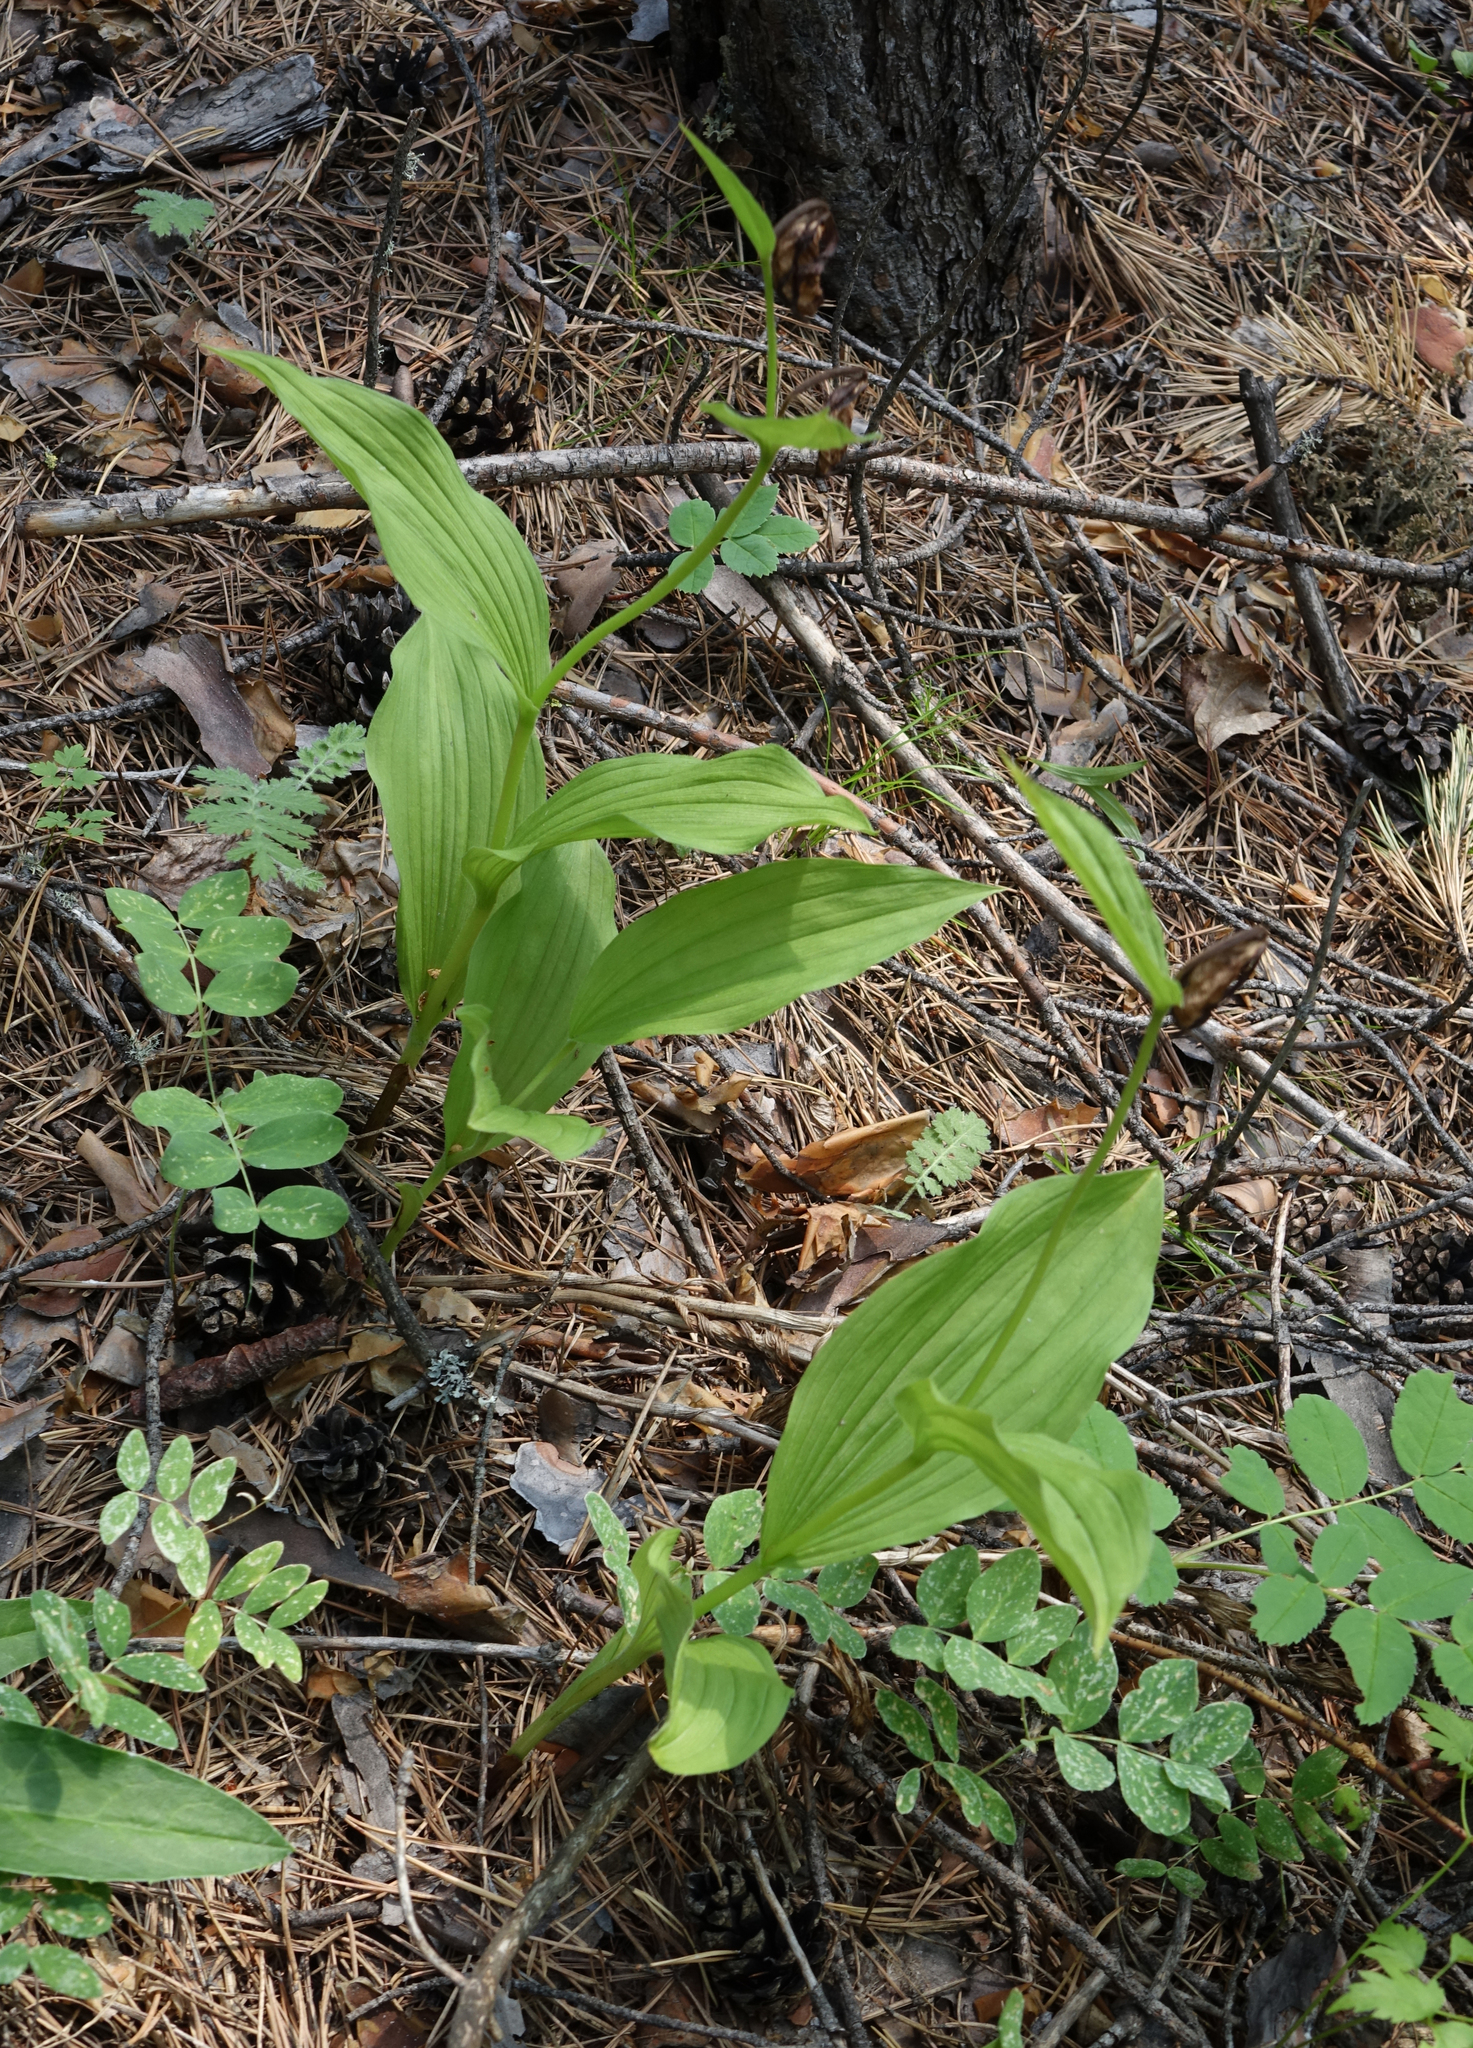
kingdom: Plantae
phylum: Tracheophyta
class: Liliopsida
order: Asparagales
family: Orchidaceae
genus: Cypripedium
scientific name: Cypripedium calceolus
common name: Lady's-slipper
